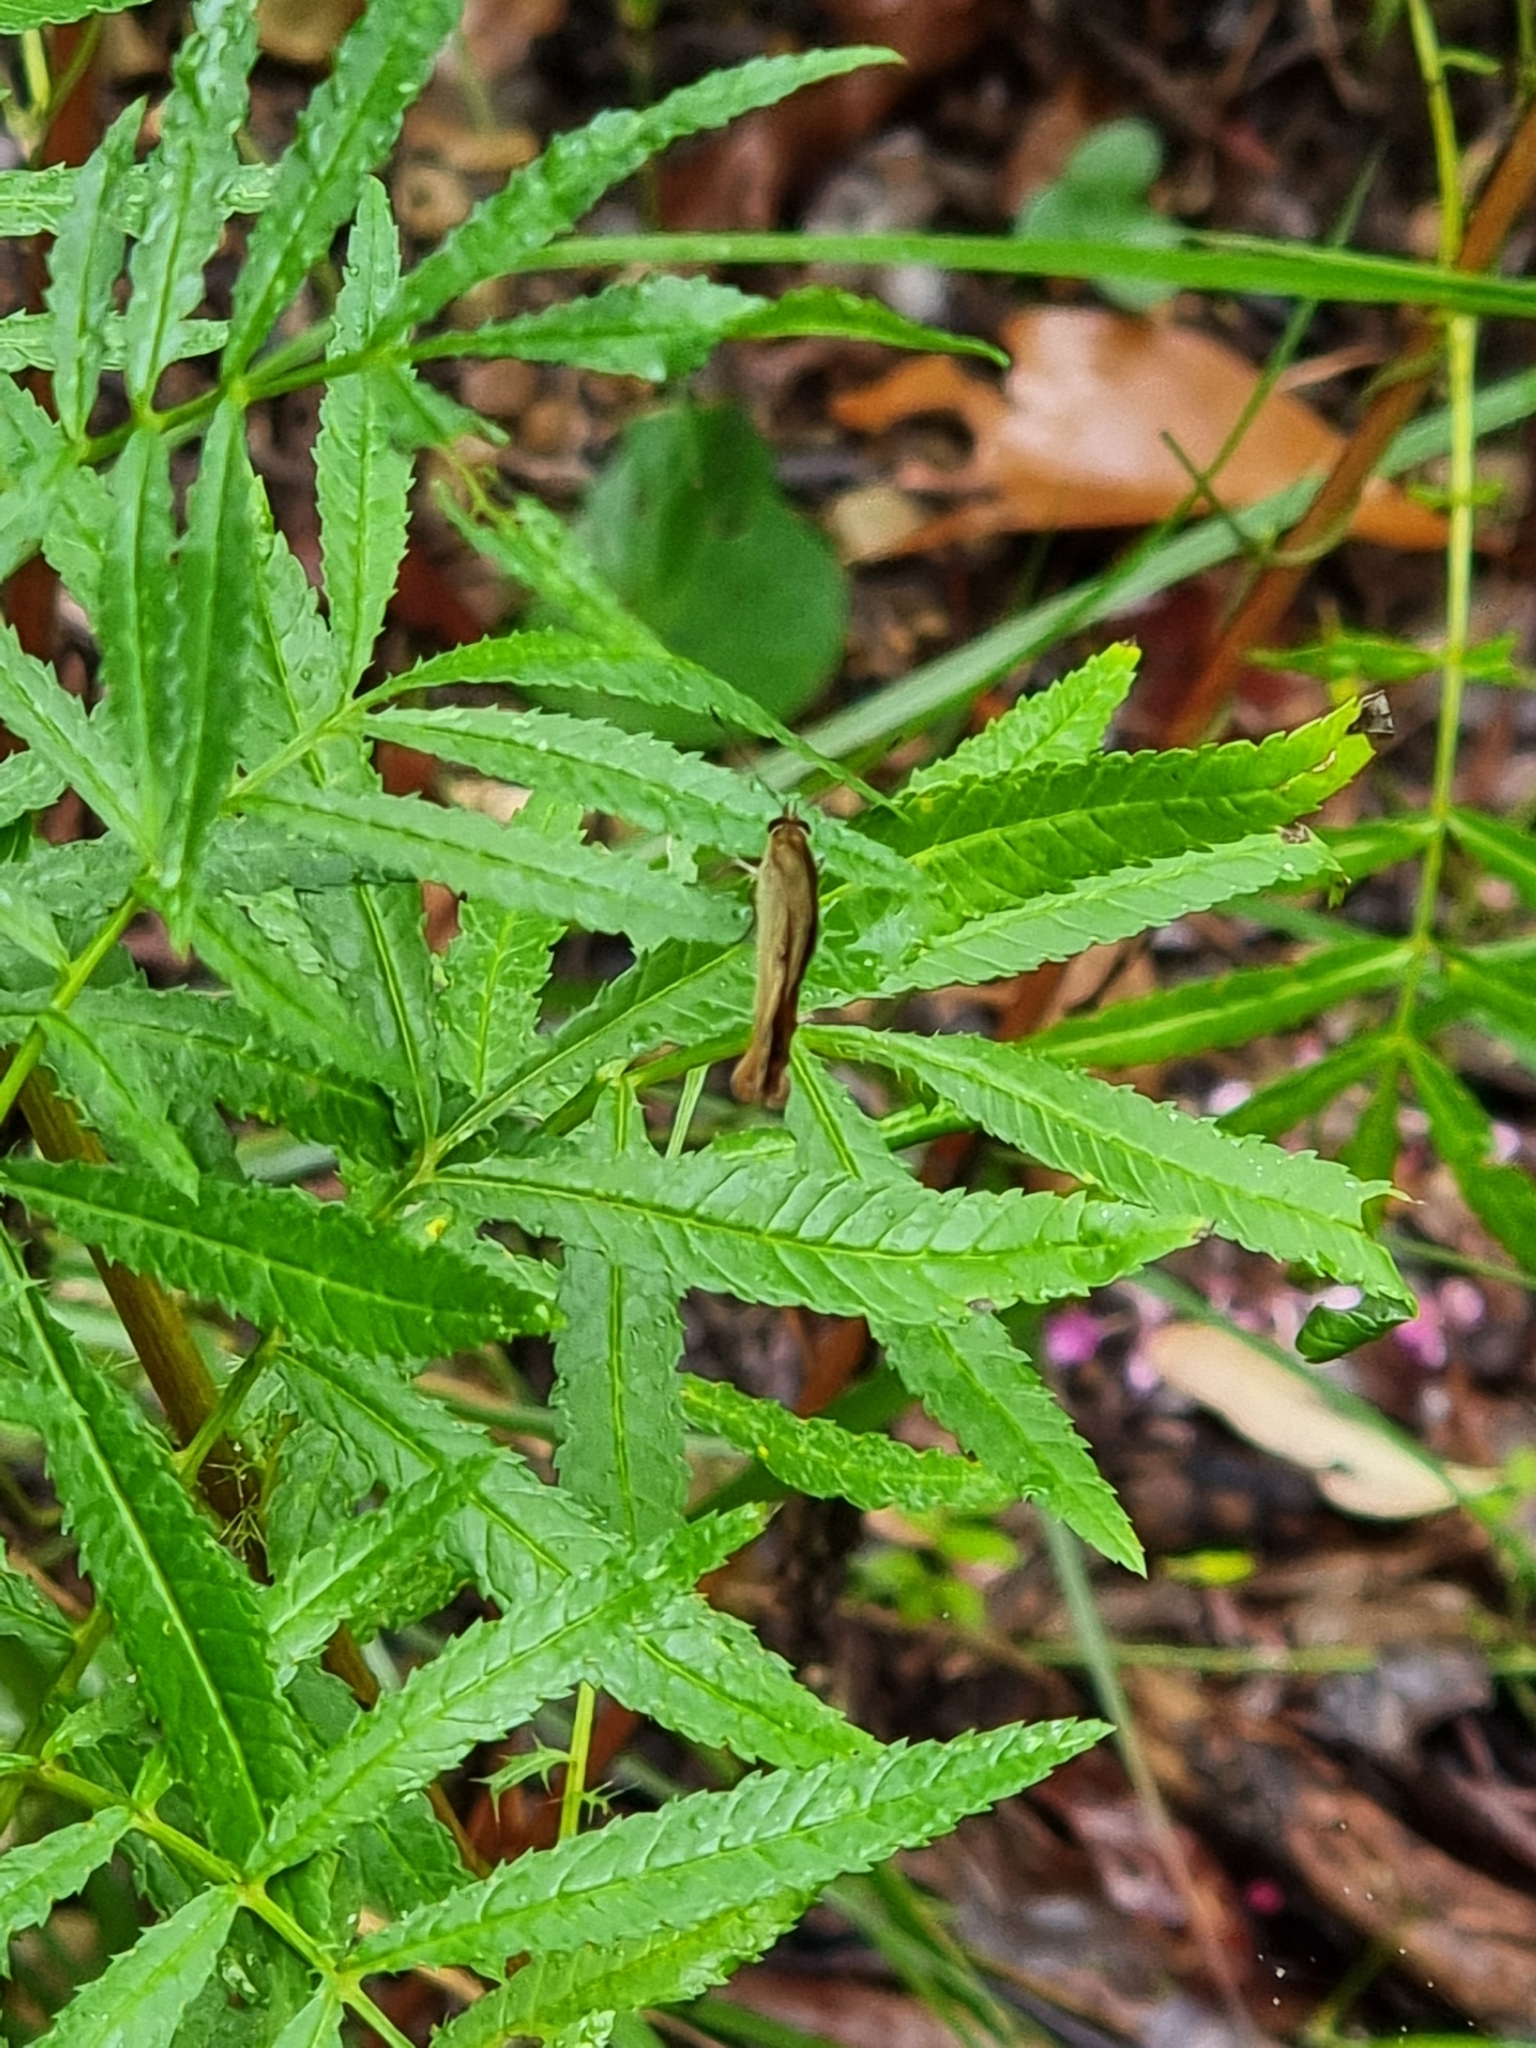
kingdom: Animalia
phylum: Arthropoda
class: Insecta
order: Lepidoptera
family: Nymphalidae
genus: Hypocysta
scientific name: Hypocysta metirius
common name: Brown ringlet
